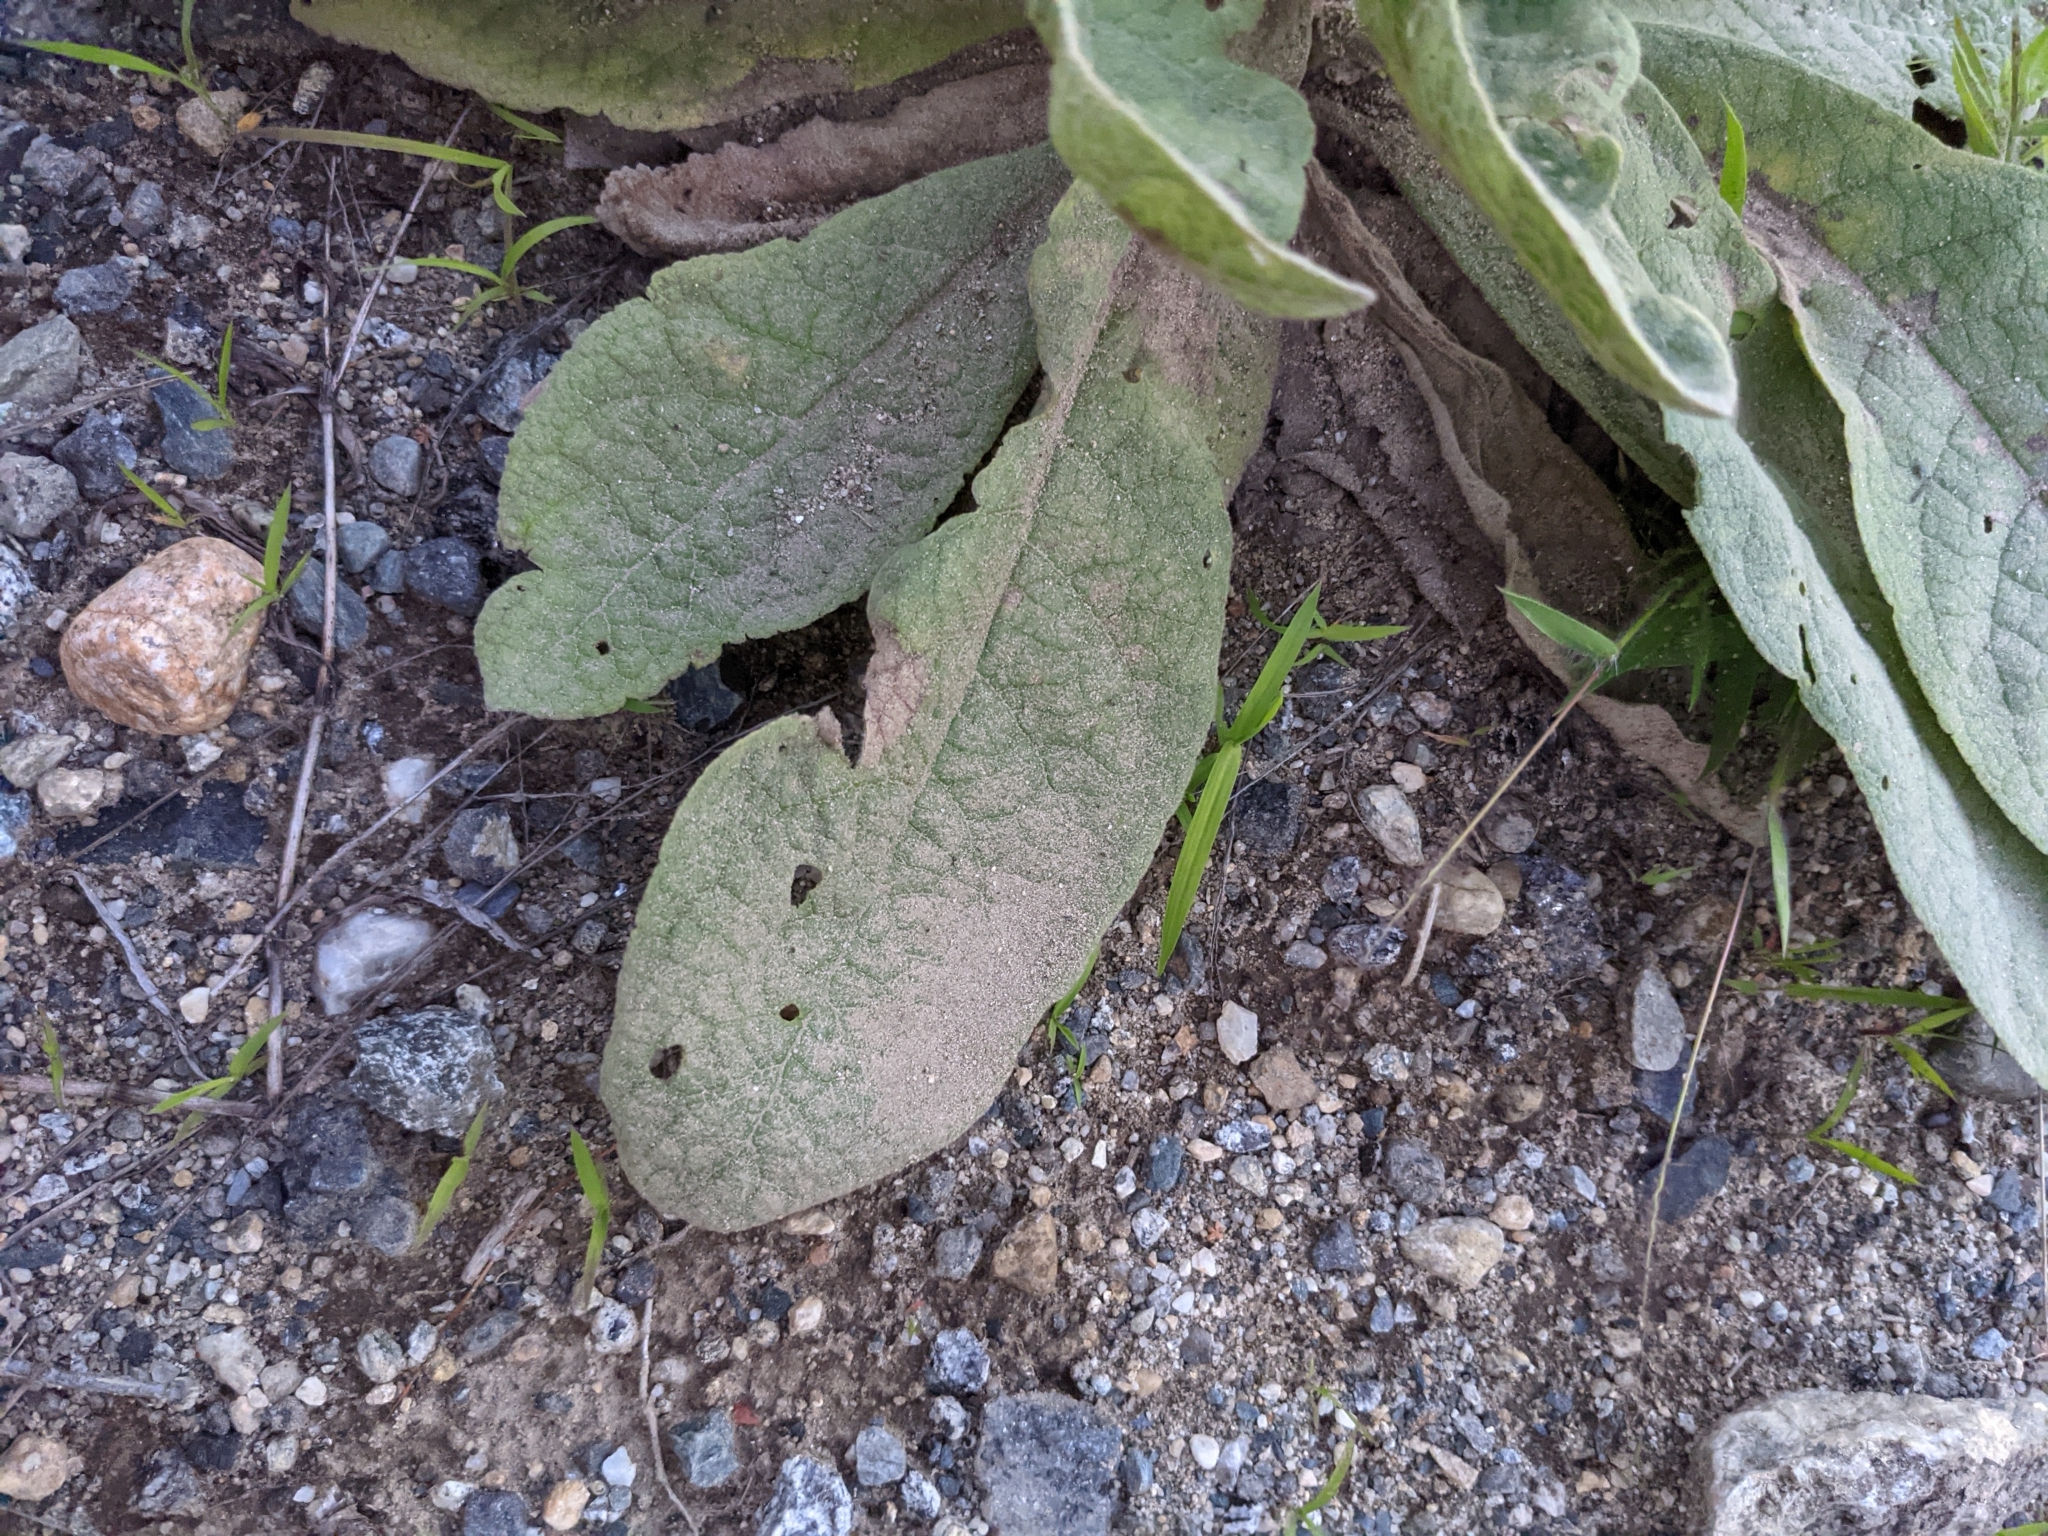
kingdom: Plantae
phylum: Tracheophyta
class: Magnoliopsida
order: Lamiales
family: Scrophulariaceae
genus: Verbascum
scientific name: Verbascum thapsus
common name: Common mullein
